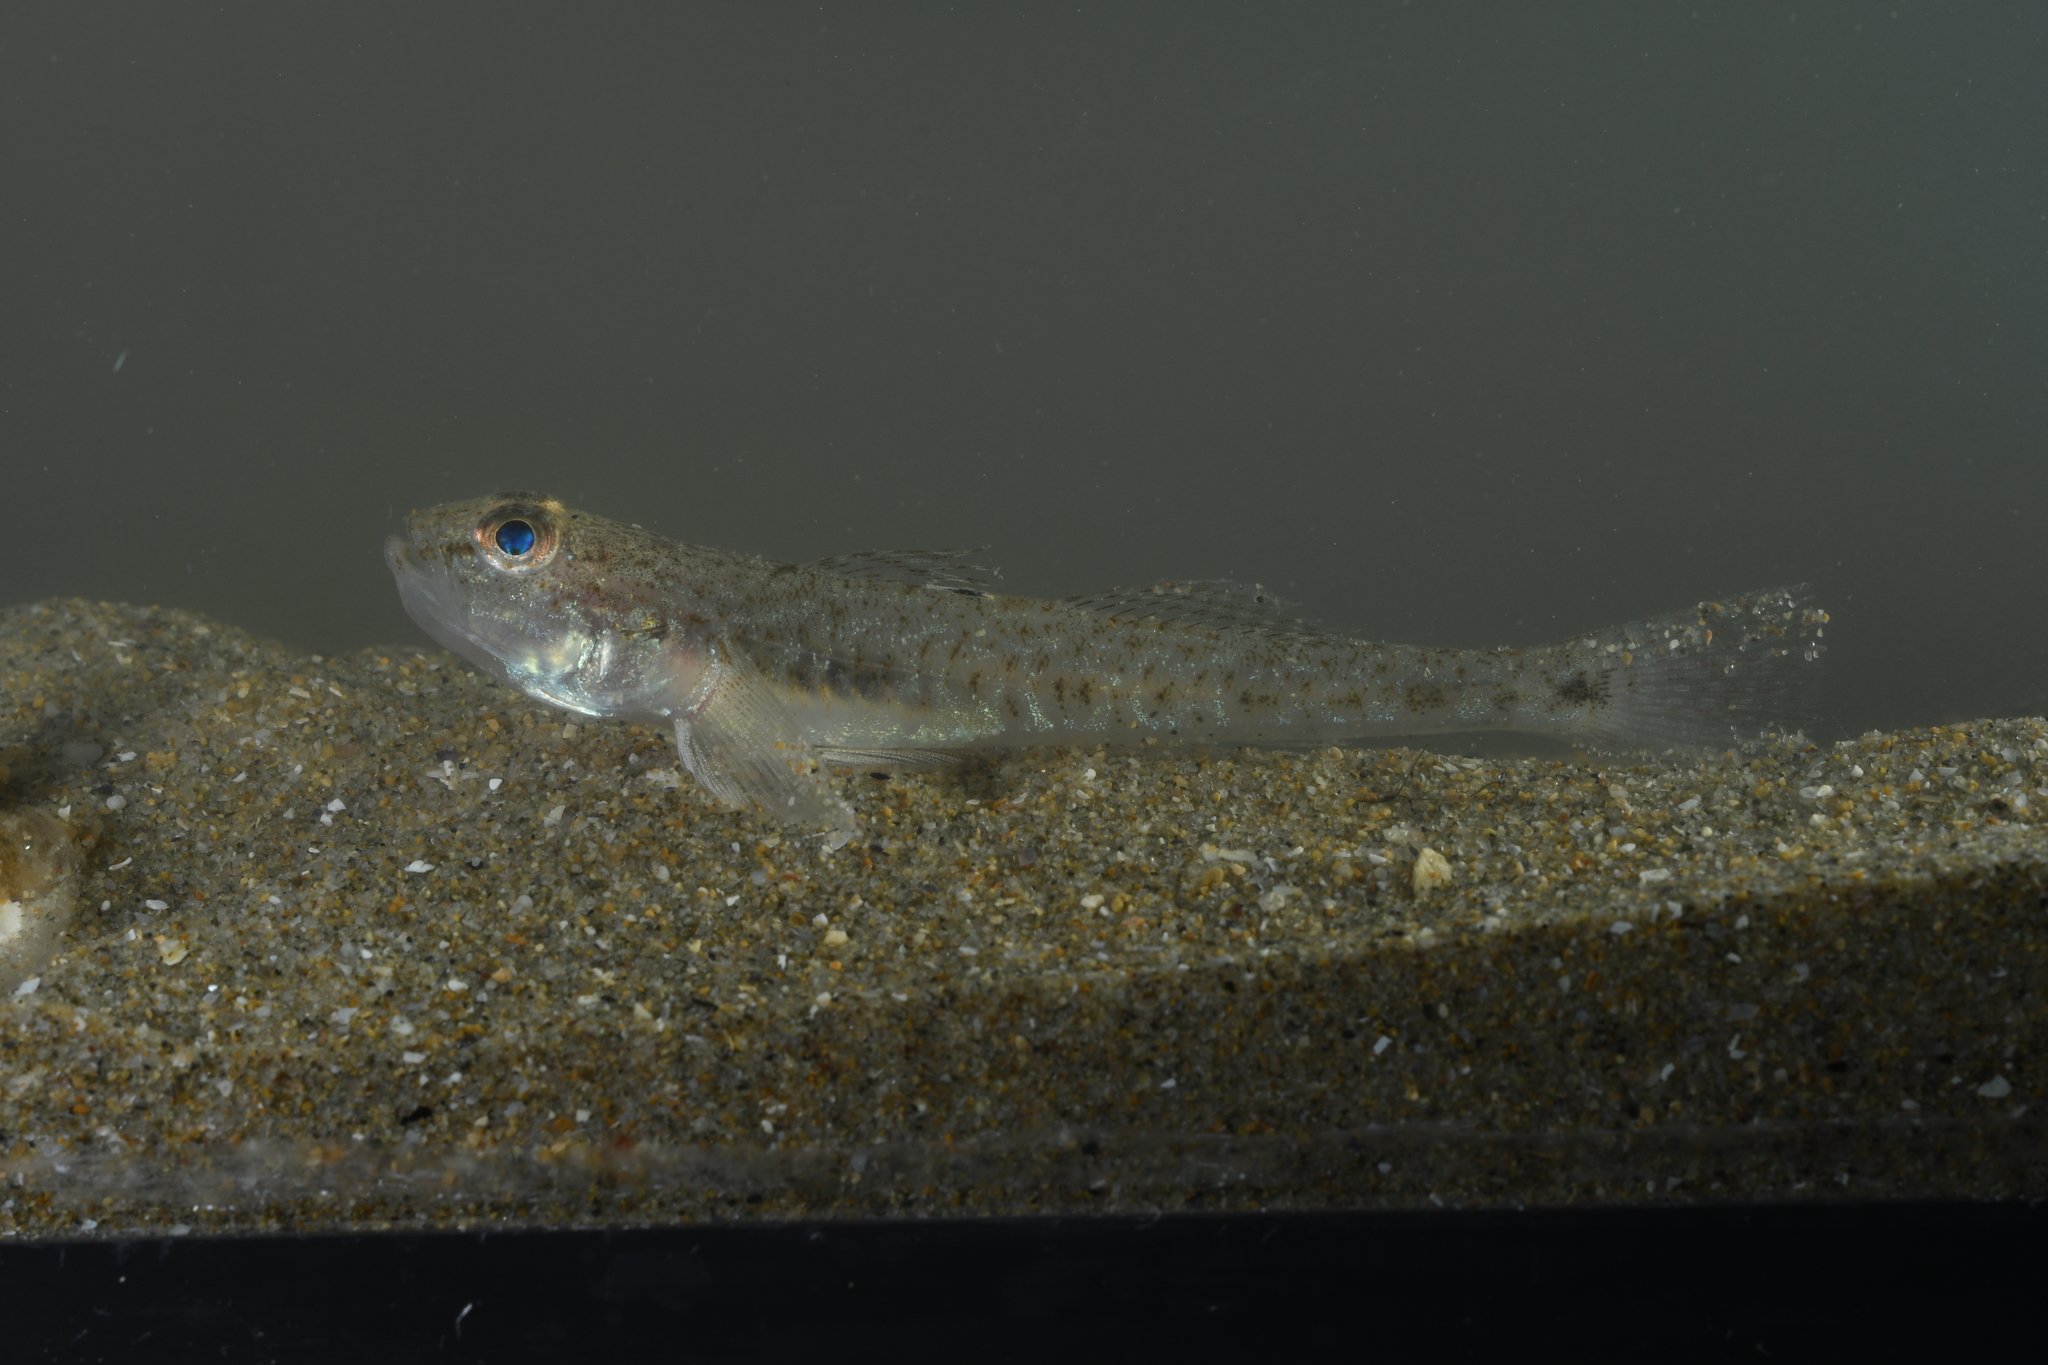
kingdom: Animalia
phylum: Chordata
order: Perciformes
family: Gobiidae
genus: Pomatoschistus
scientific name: Pomatoschistus minutus
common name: Sand goby
